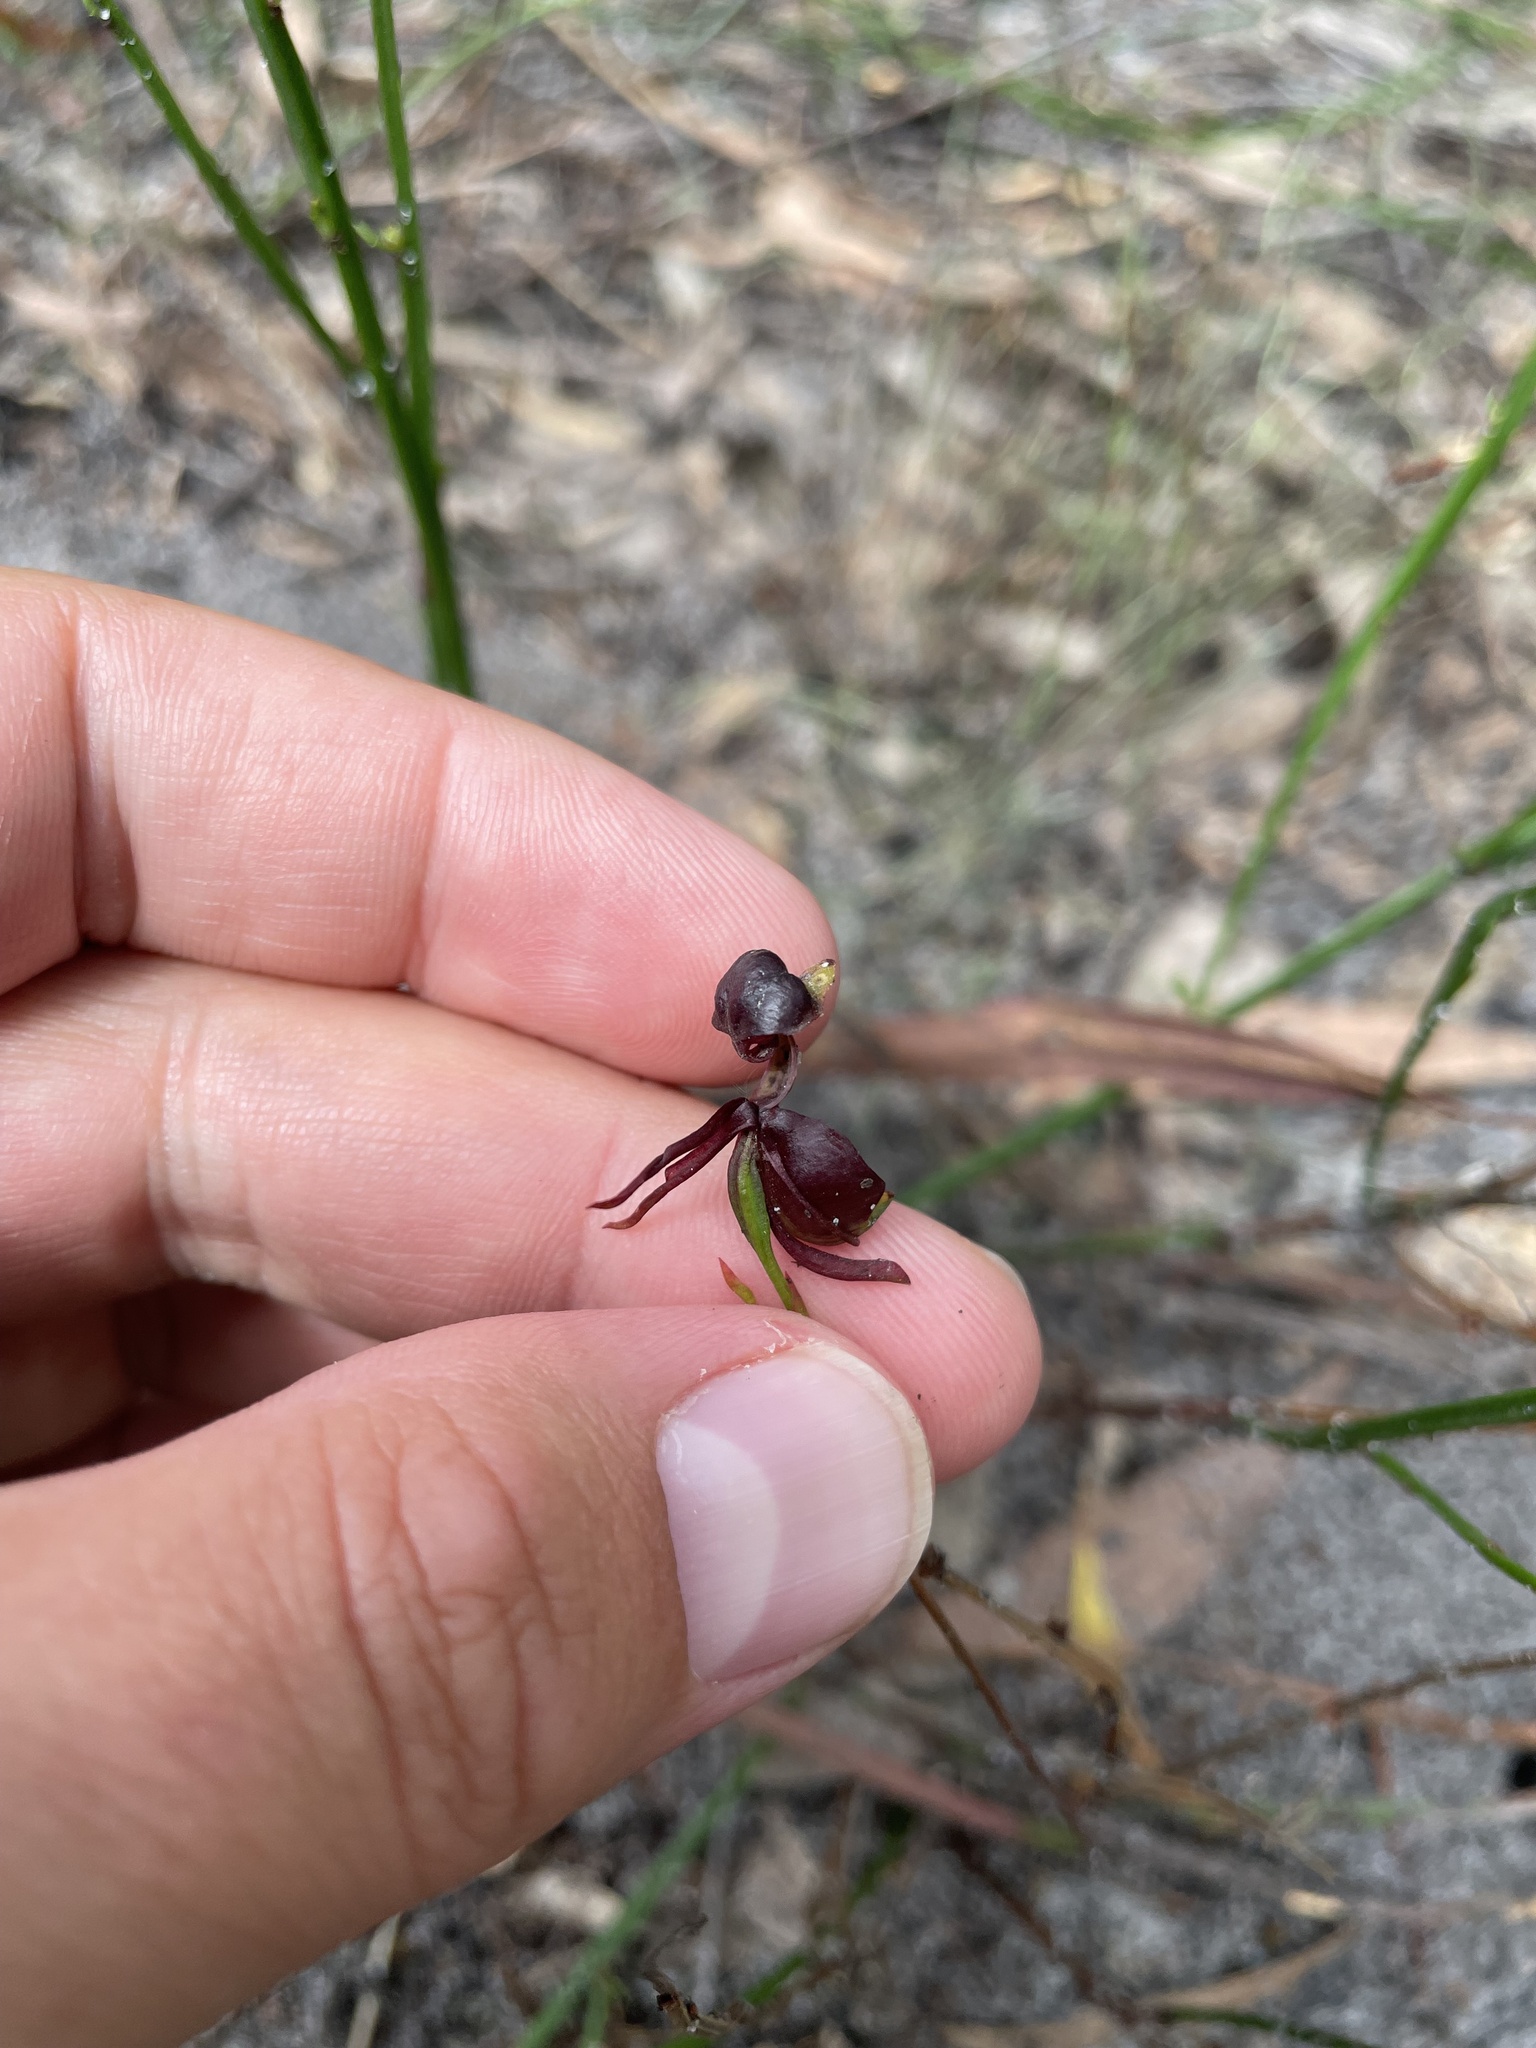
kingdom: Plantae
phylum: Tracheophyta
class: Liliopsida
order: Asparagales
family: Orchidaceae
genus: Caleana
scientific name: Caleana major
